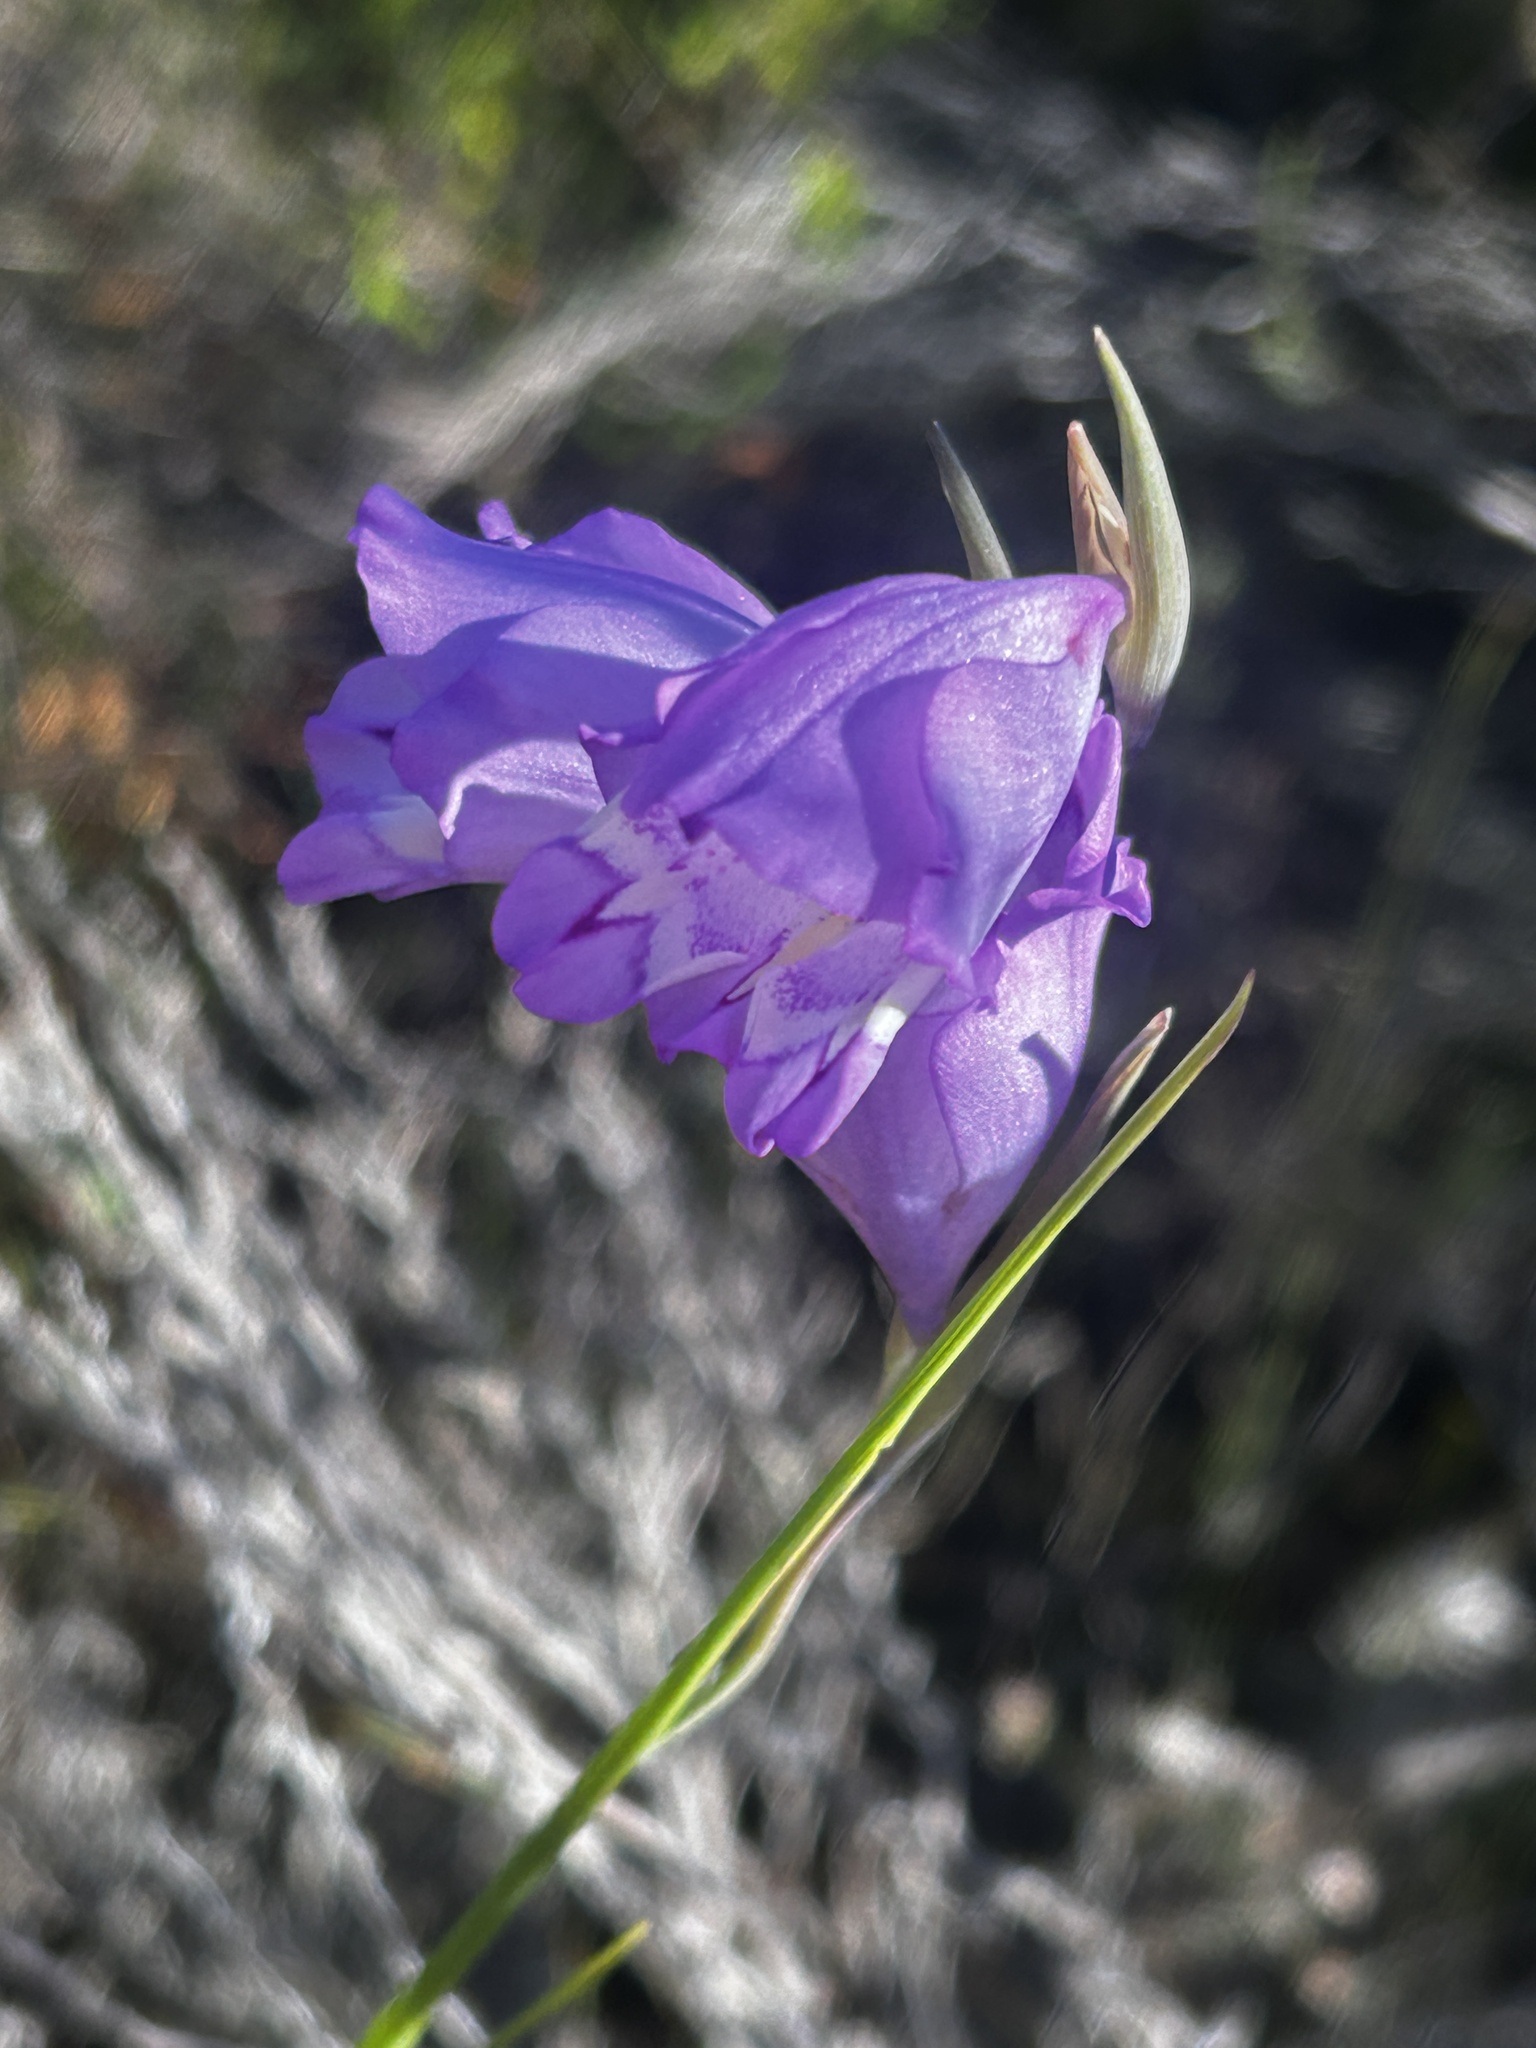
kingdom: Plantae
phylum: Tracheophyta
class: Liliopsida
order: Asparagales
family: Iridaceae
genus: Gladiolus
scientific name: Gladiolus rogersii
